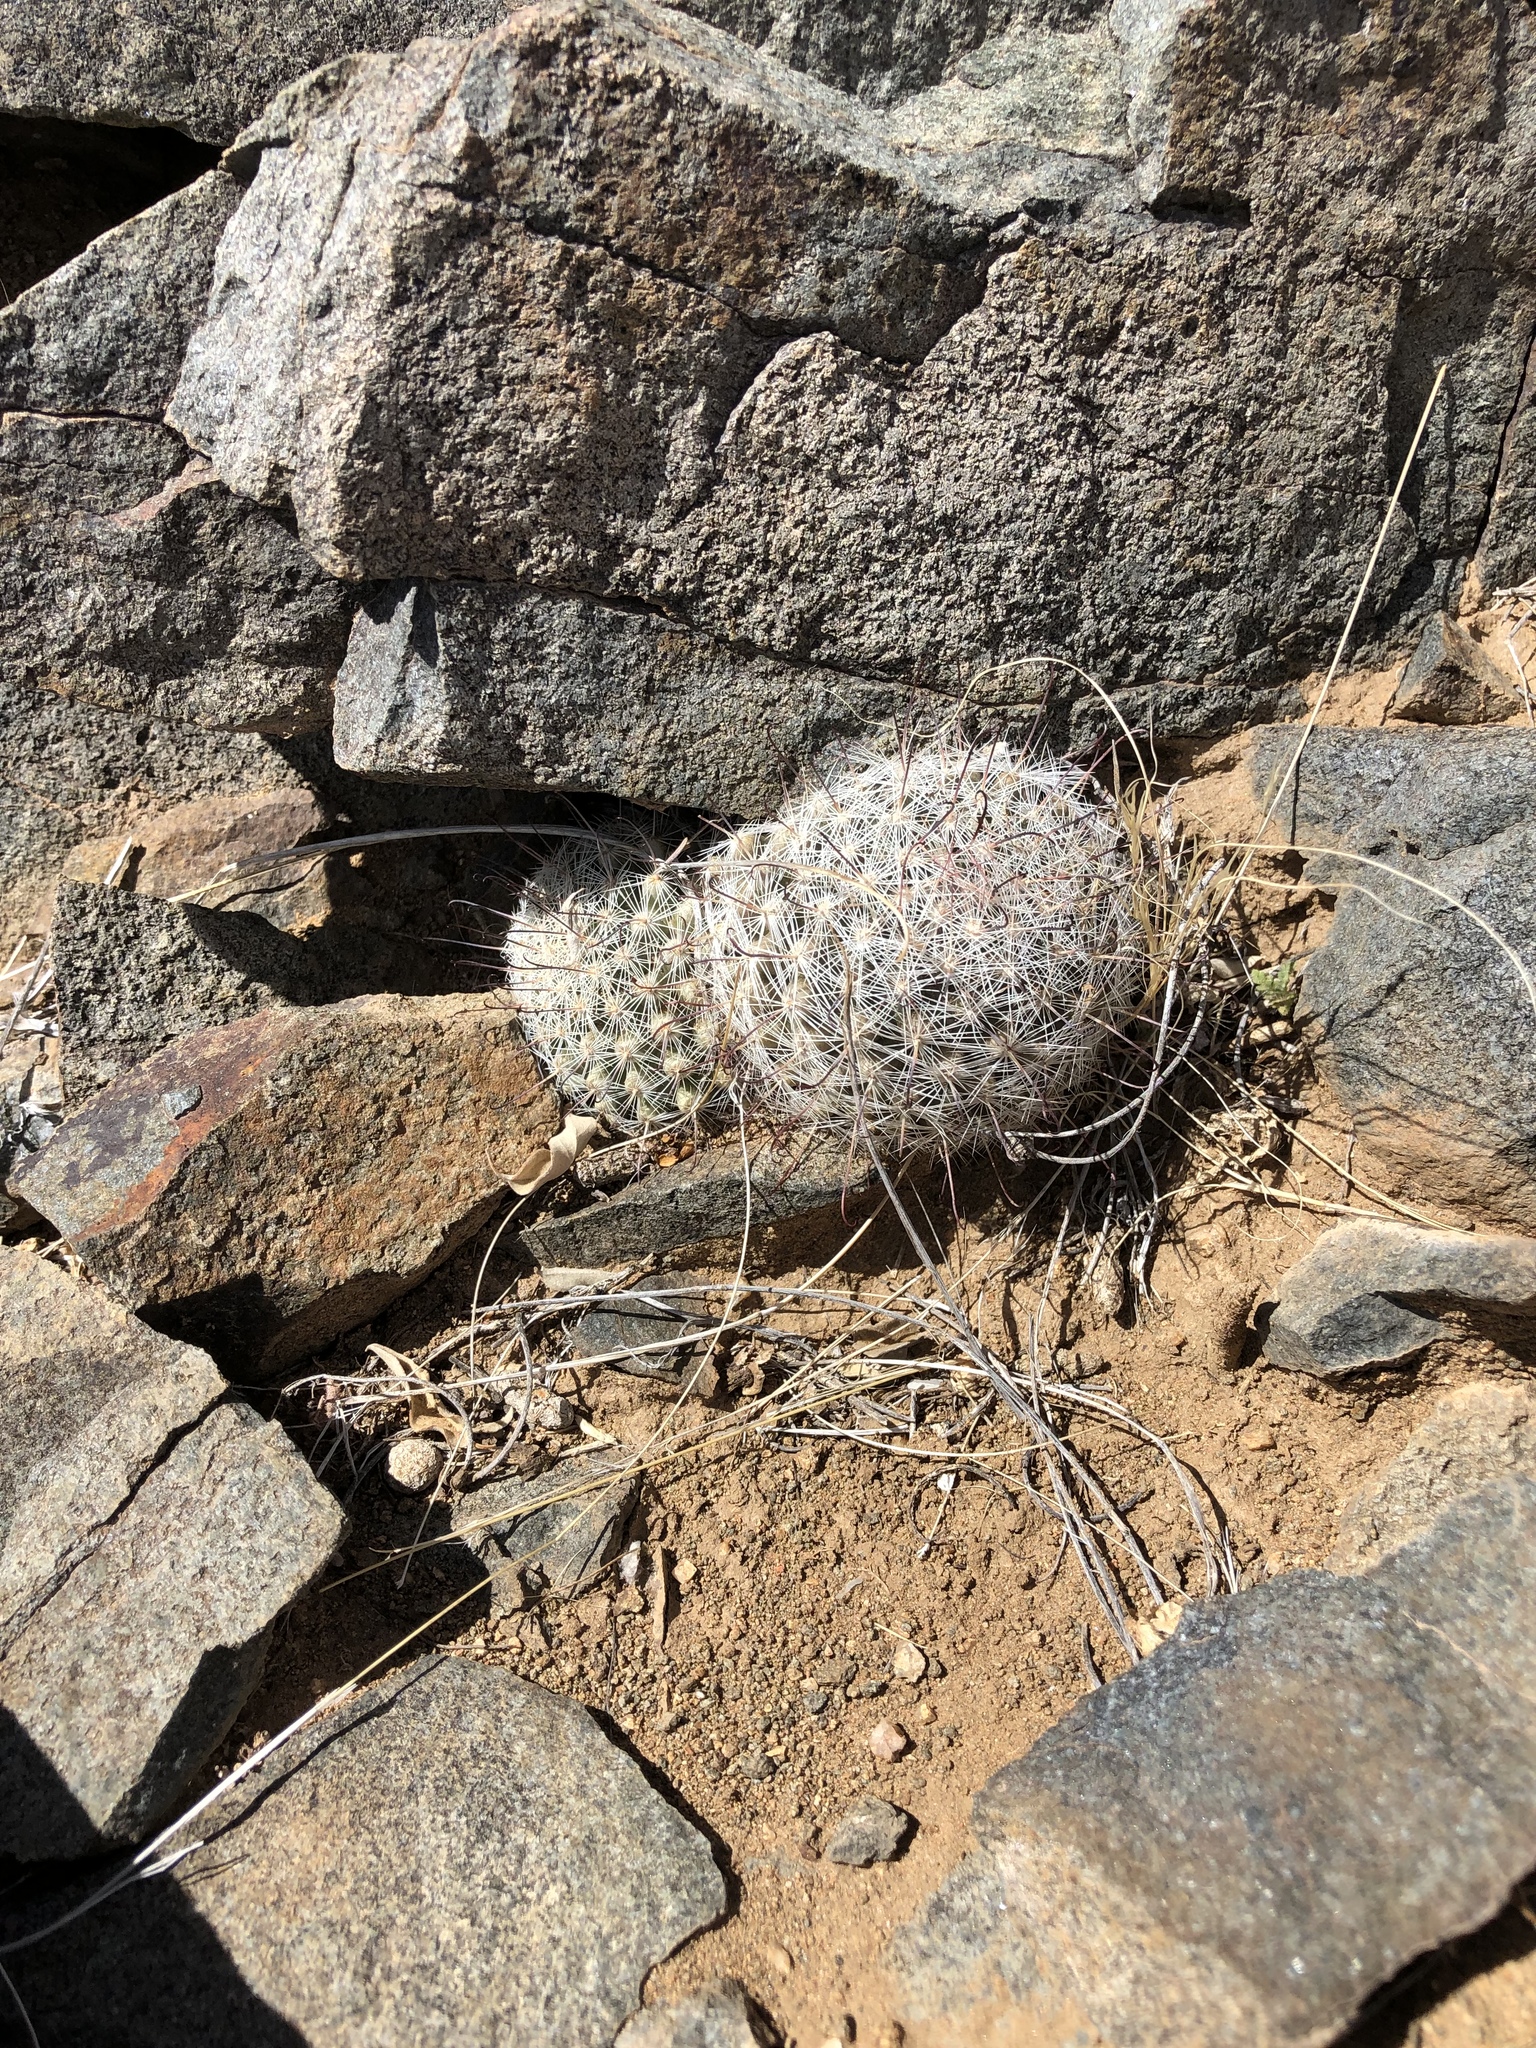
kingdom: Plantae
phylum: Tracheophyta
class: Magnoliopsida
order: Caryophyllales
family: Cactaceae
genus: Cochemiea
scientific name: Cochemiea grahamii
